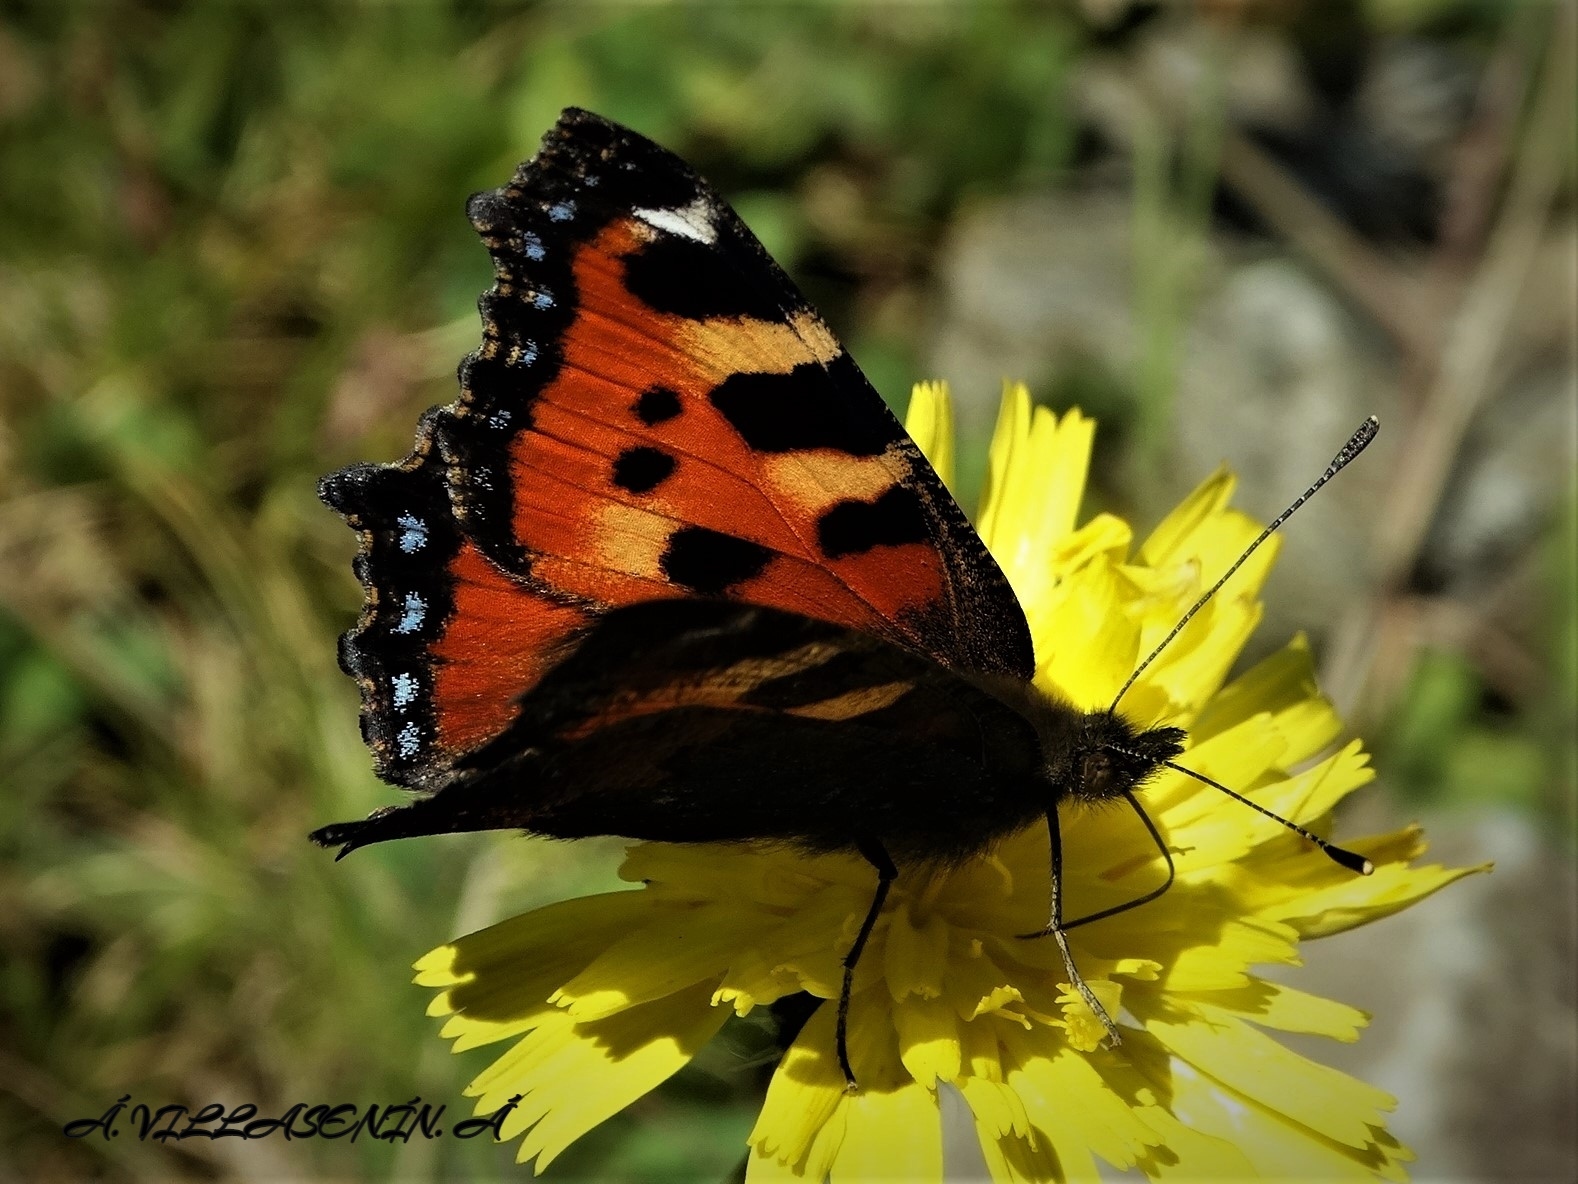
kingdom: Animalia
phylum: Arthropoda
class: Insecta
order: Lepidoptera
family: Nymphalidae
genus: Aglais
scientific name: Aglais urticae
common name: Small tortoiseshell
